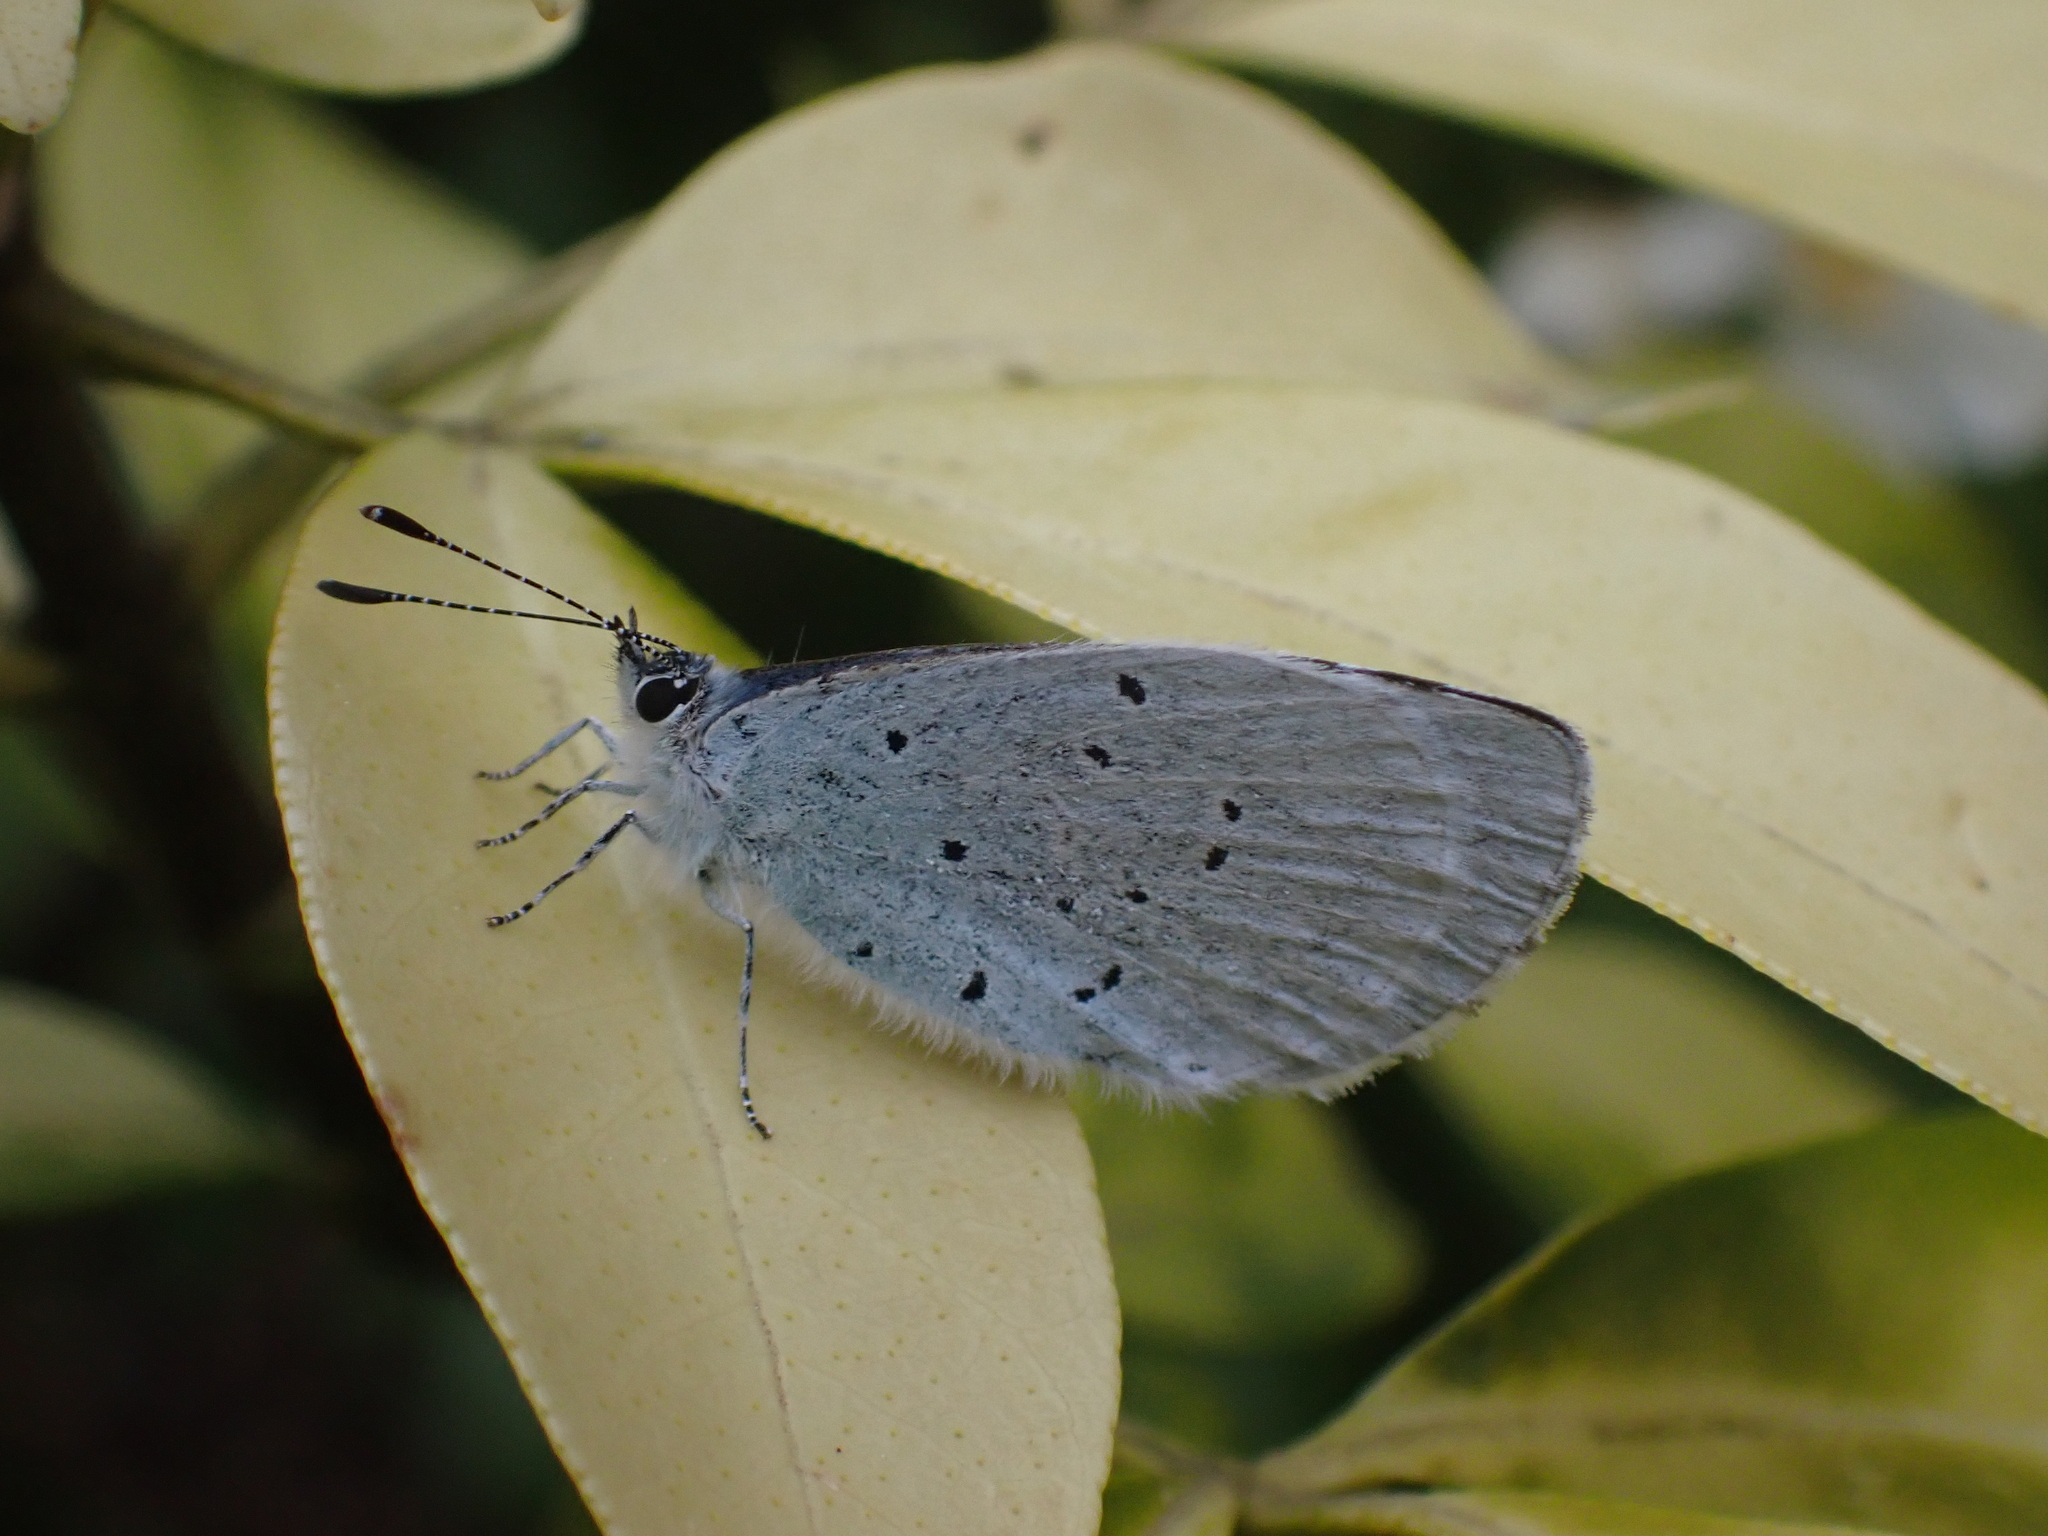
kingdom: Animalia
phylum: Arthropoda
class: Insecta
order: Lepidoptera
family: Lycaenidae
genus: Celastrina
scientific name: Celastrina argiolus
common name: Holly blue
